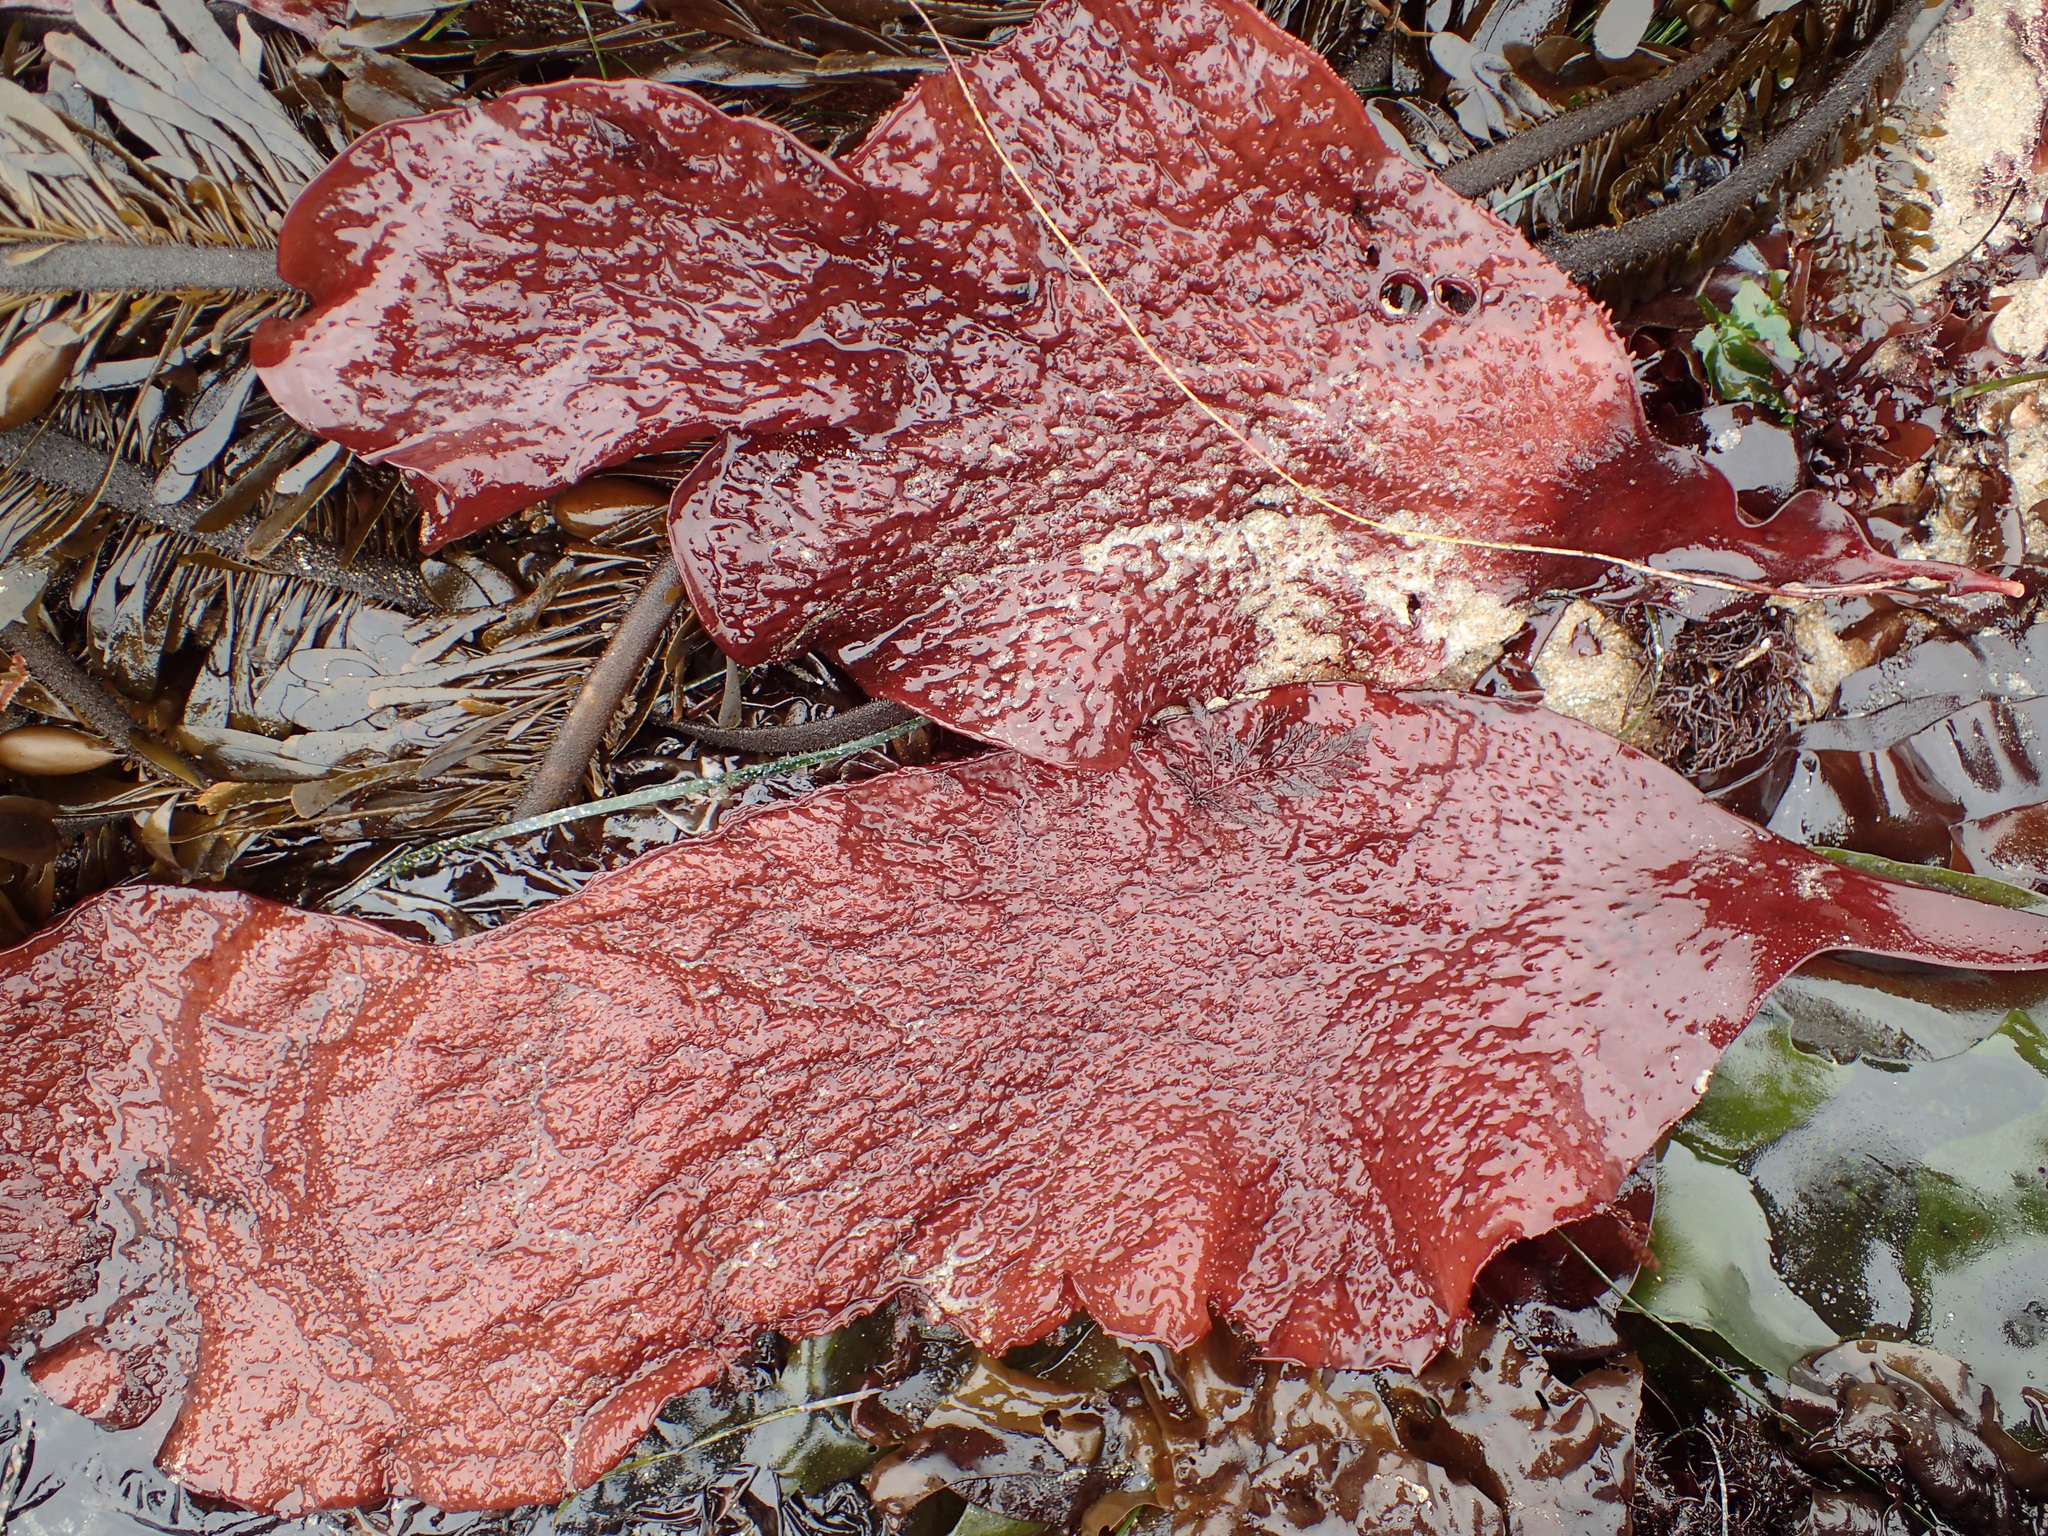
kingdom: Plantae
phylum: Rhodophyta
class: Florideophyceae
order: Gigartinales
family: Gigartinaceae
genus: Chondracanthus
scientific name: Chondracanthus corymbiferus
